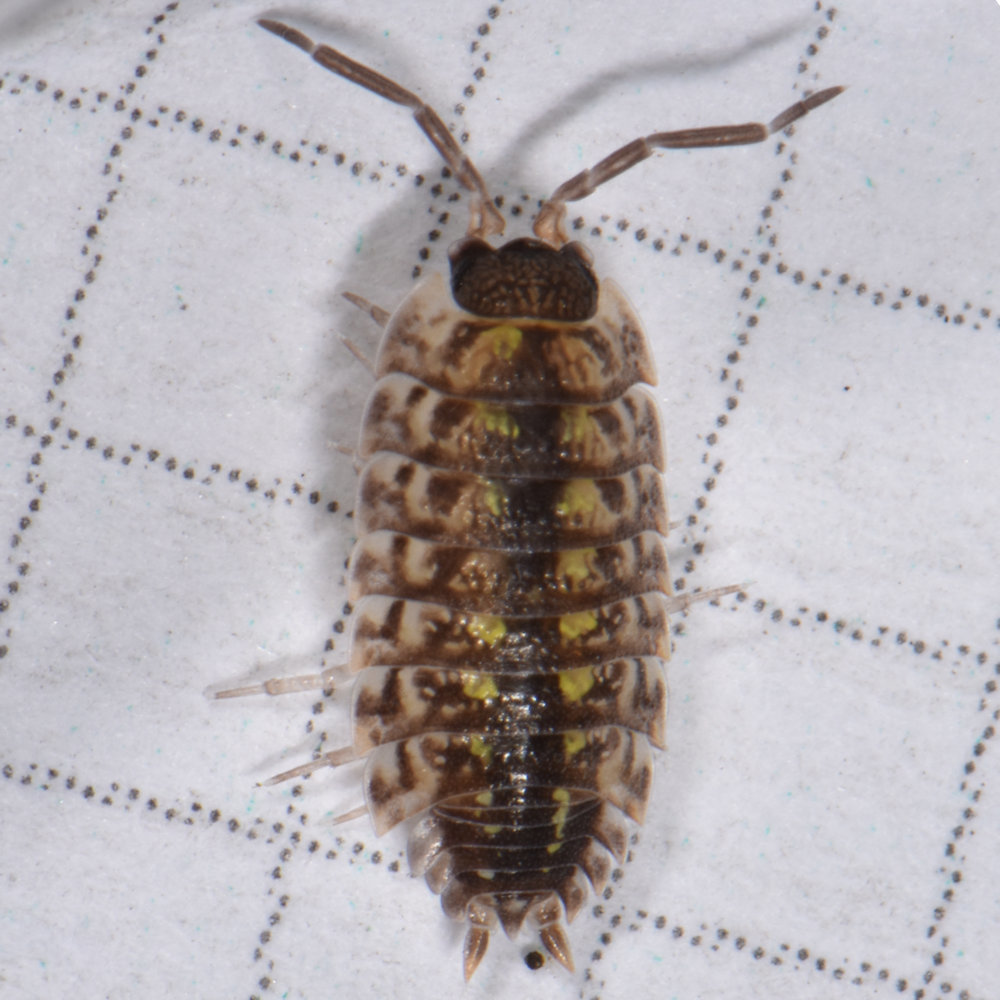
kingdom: Animalia
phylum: Arthropoda
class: Malacostraca
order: Isopoda
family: Porcellionidae
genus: Porcellio
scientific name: Porcellio spinicornis
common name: Painted woodlouse
